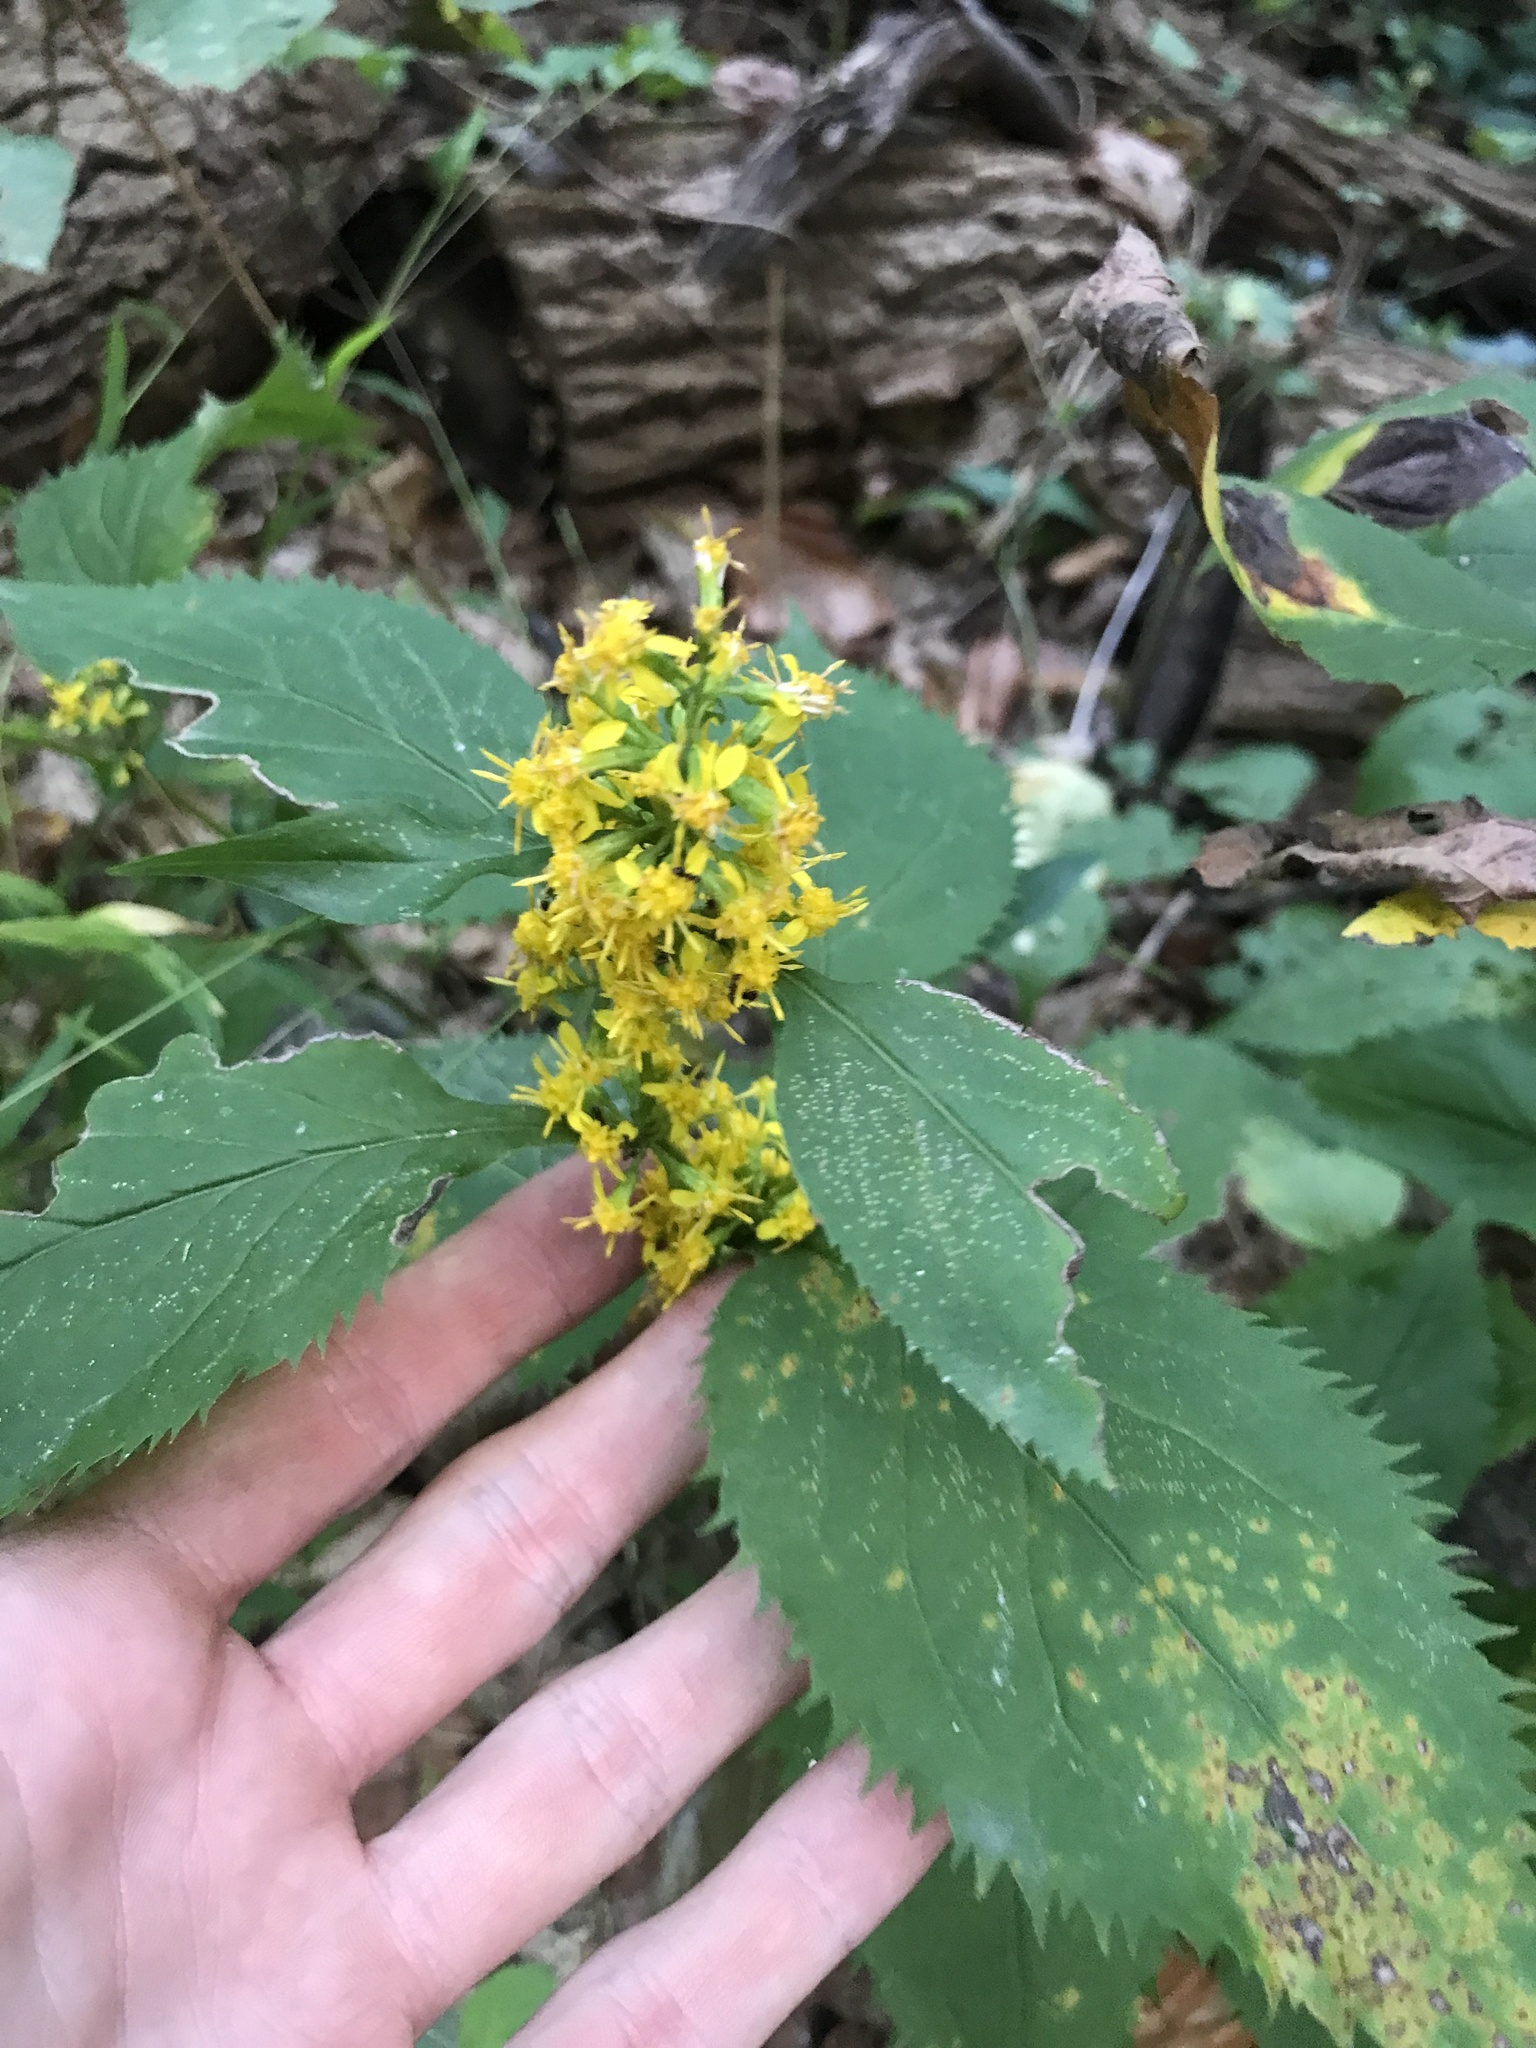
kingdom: Plantae
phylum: Tracheophyta
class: Magnoliopsida
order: Asterales
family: Asteraceae
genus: Solidago
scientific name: Solidago flexicaulis
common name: Zig-zag goldenrod
